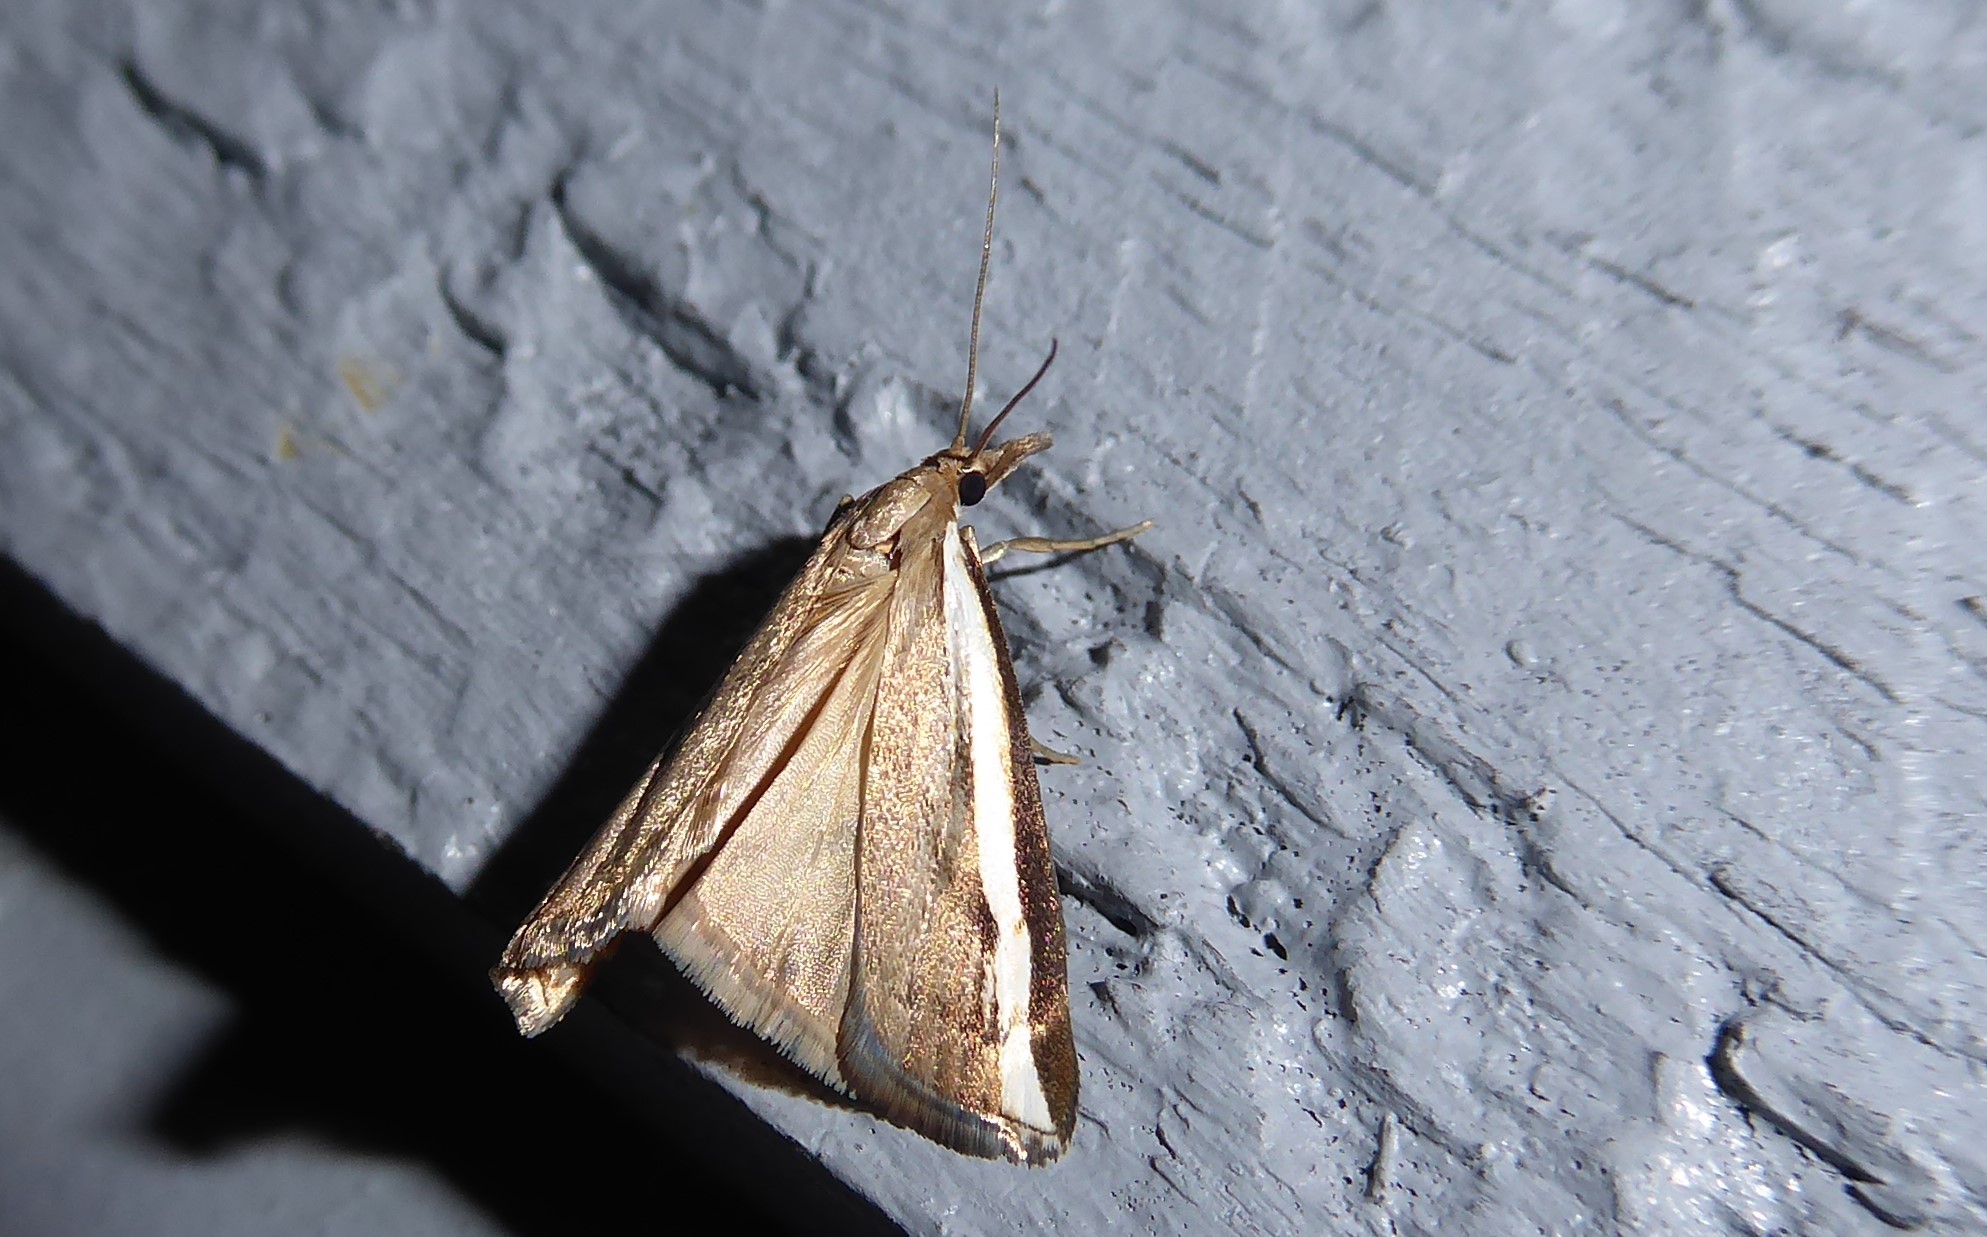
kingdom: Animalia
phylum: Arthropoda
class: Insecta
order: Lepidoptera
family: Crambidae
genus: Orocrambus
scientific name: Orocrambus flexuosellus
